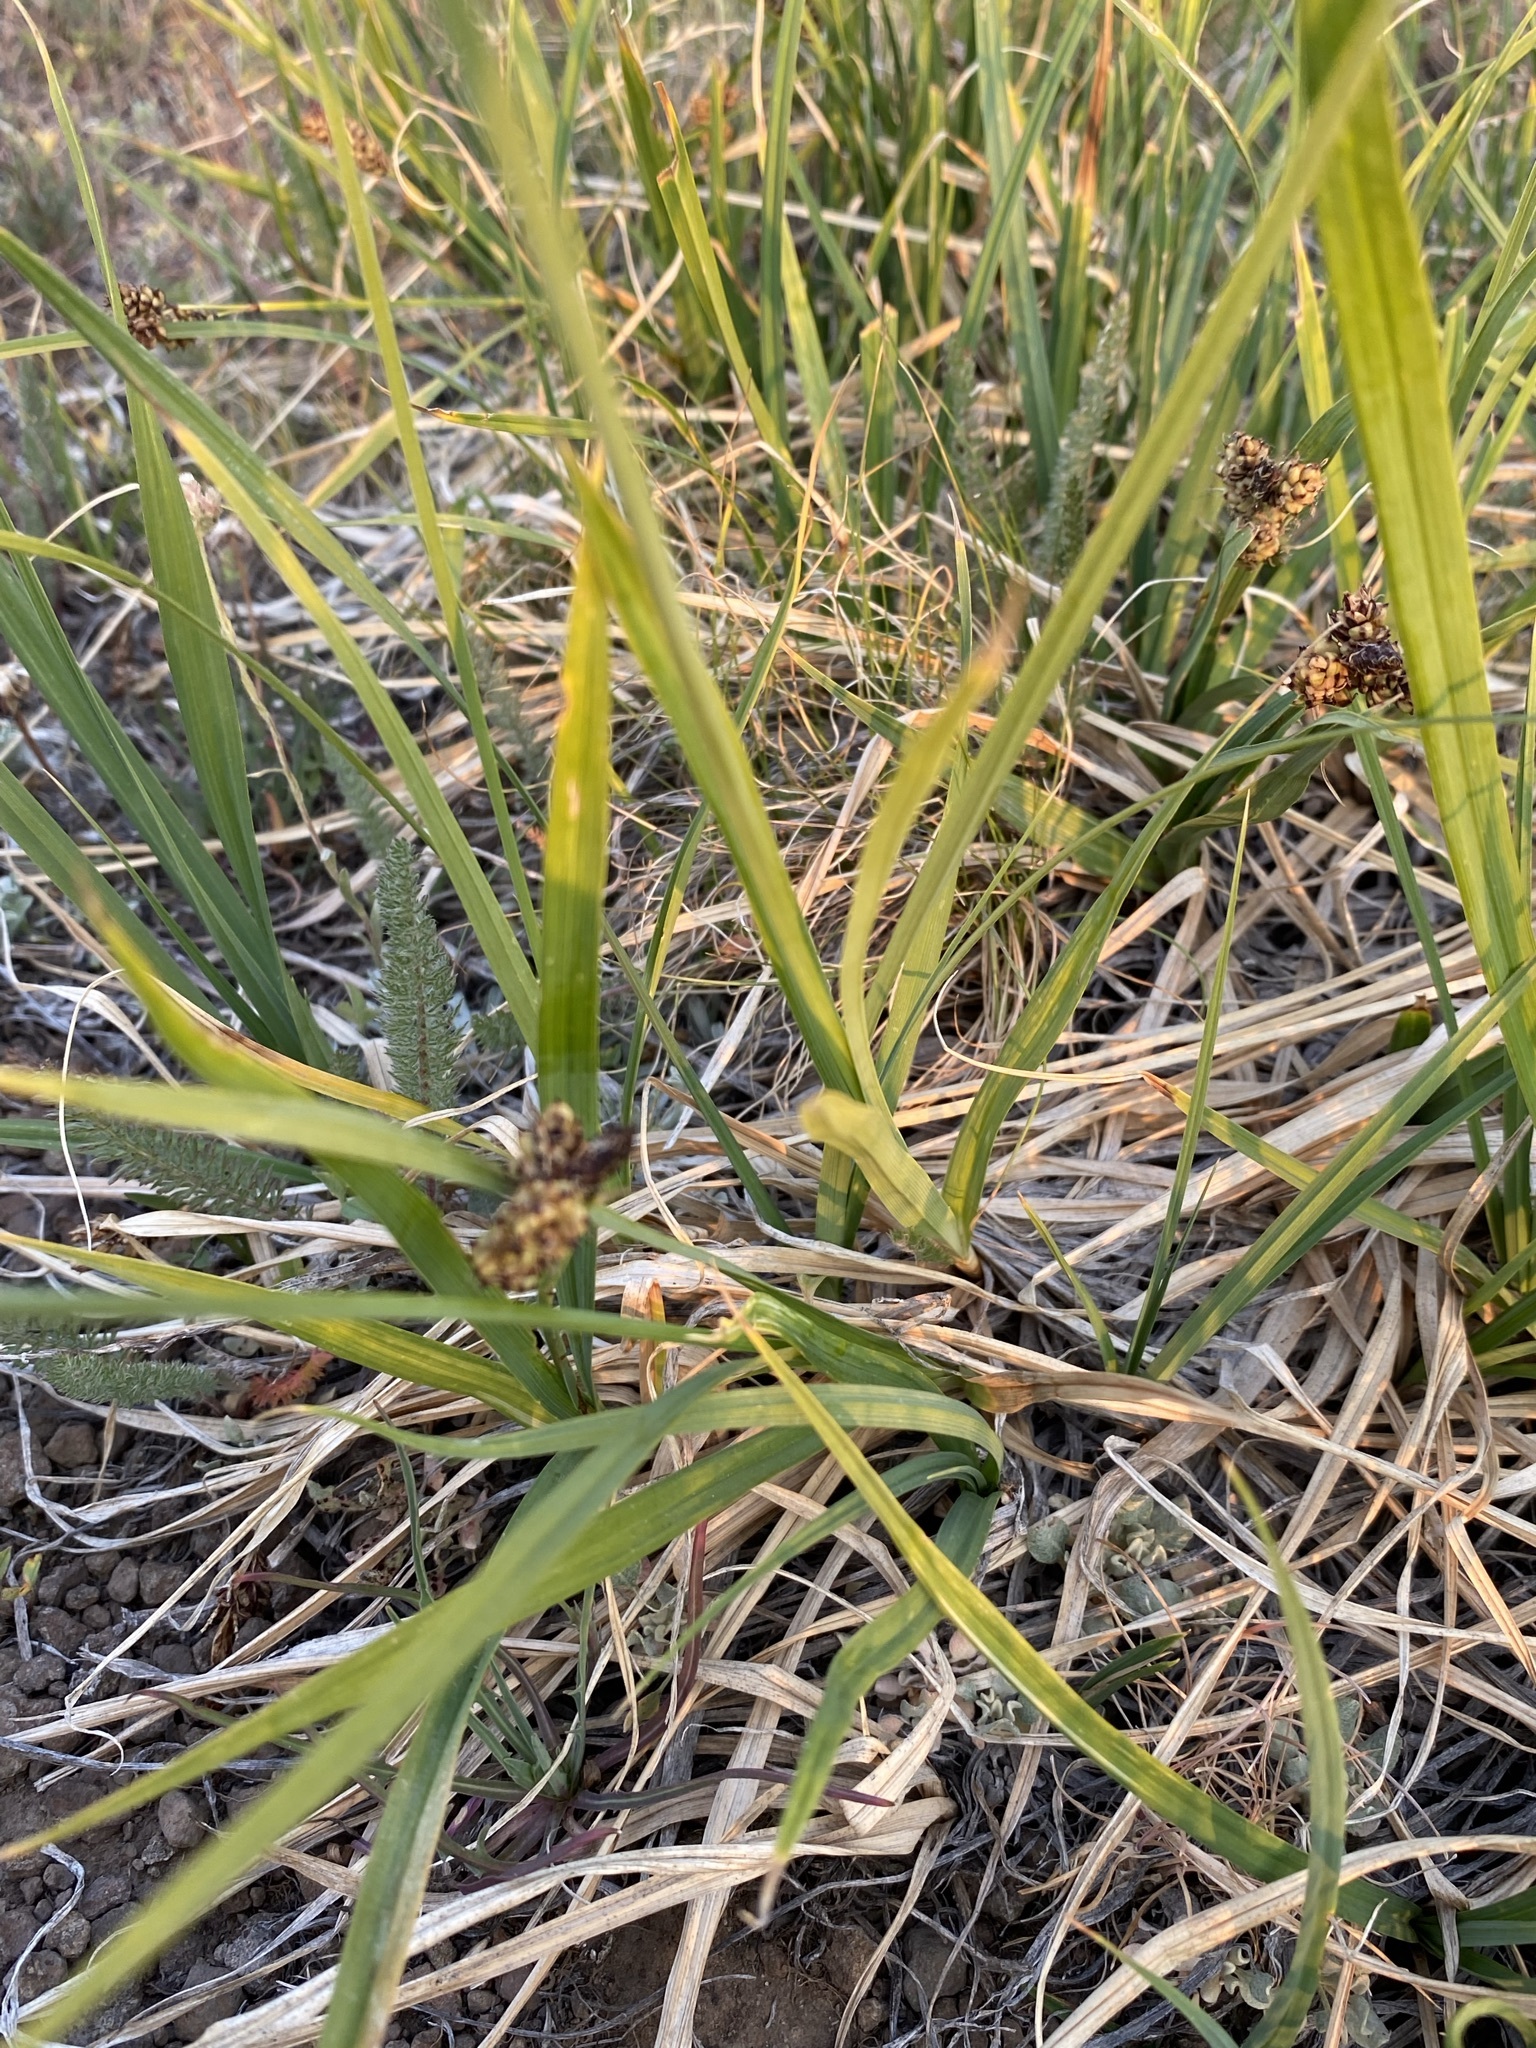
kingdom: Plantae
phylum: Tracheophyta
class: Liliopsida
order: Poales
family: Cyperaceae
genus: Carex
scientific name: Carex raynoldsii
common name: Raynolds' sedge
